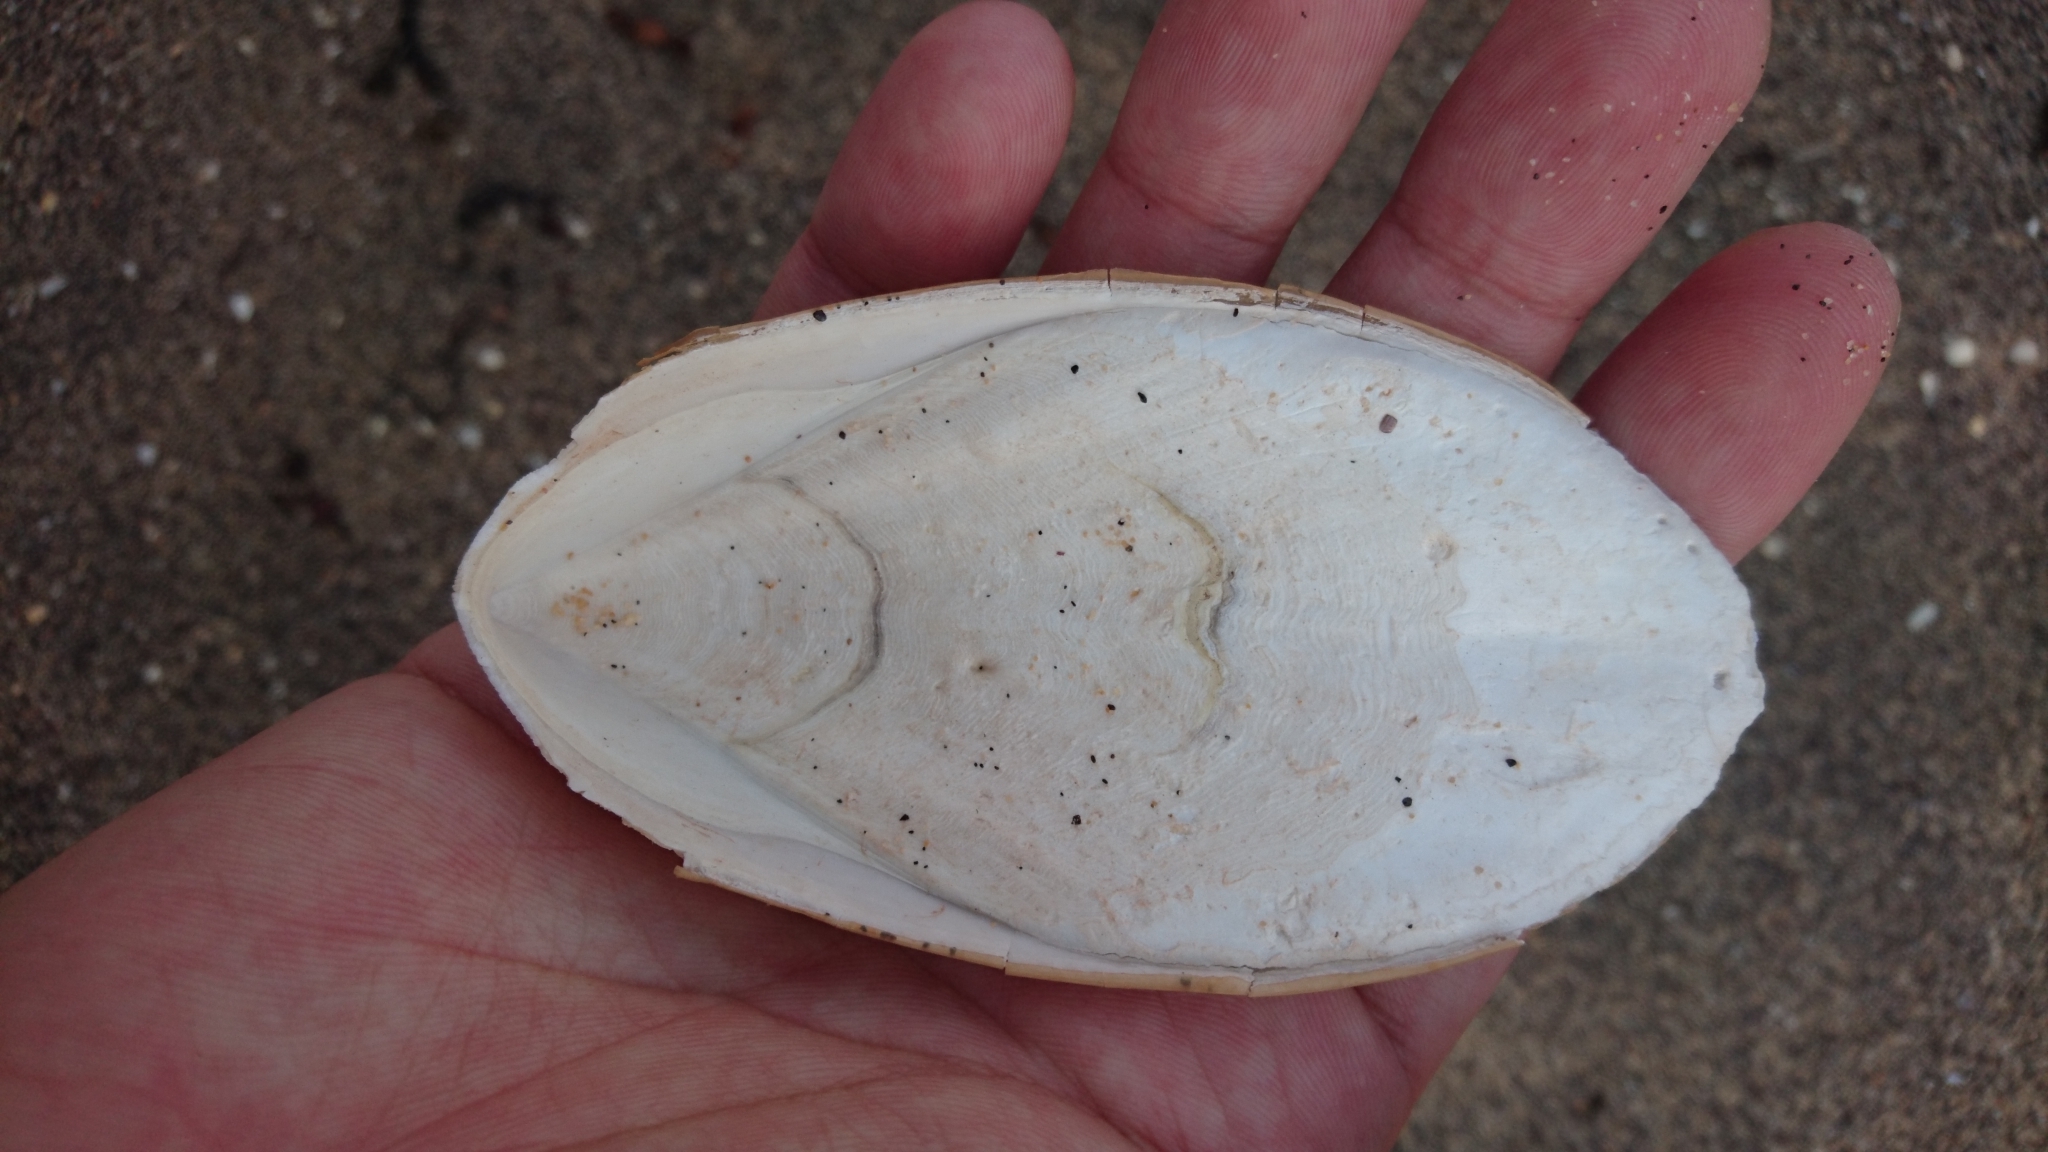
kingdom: Animalia
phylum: Mollusca
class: Cephalopoda
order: Sepiida
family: Sepiidae
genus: Ascarosepion
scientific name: Ascarosepion mestus
